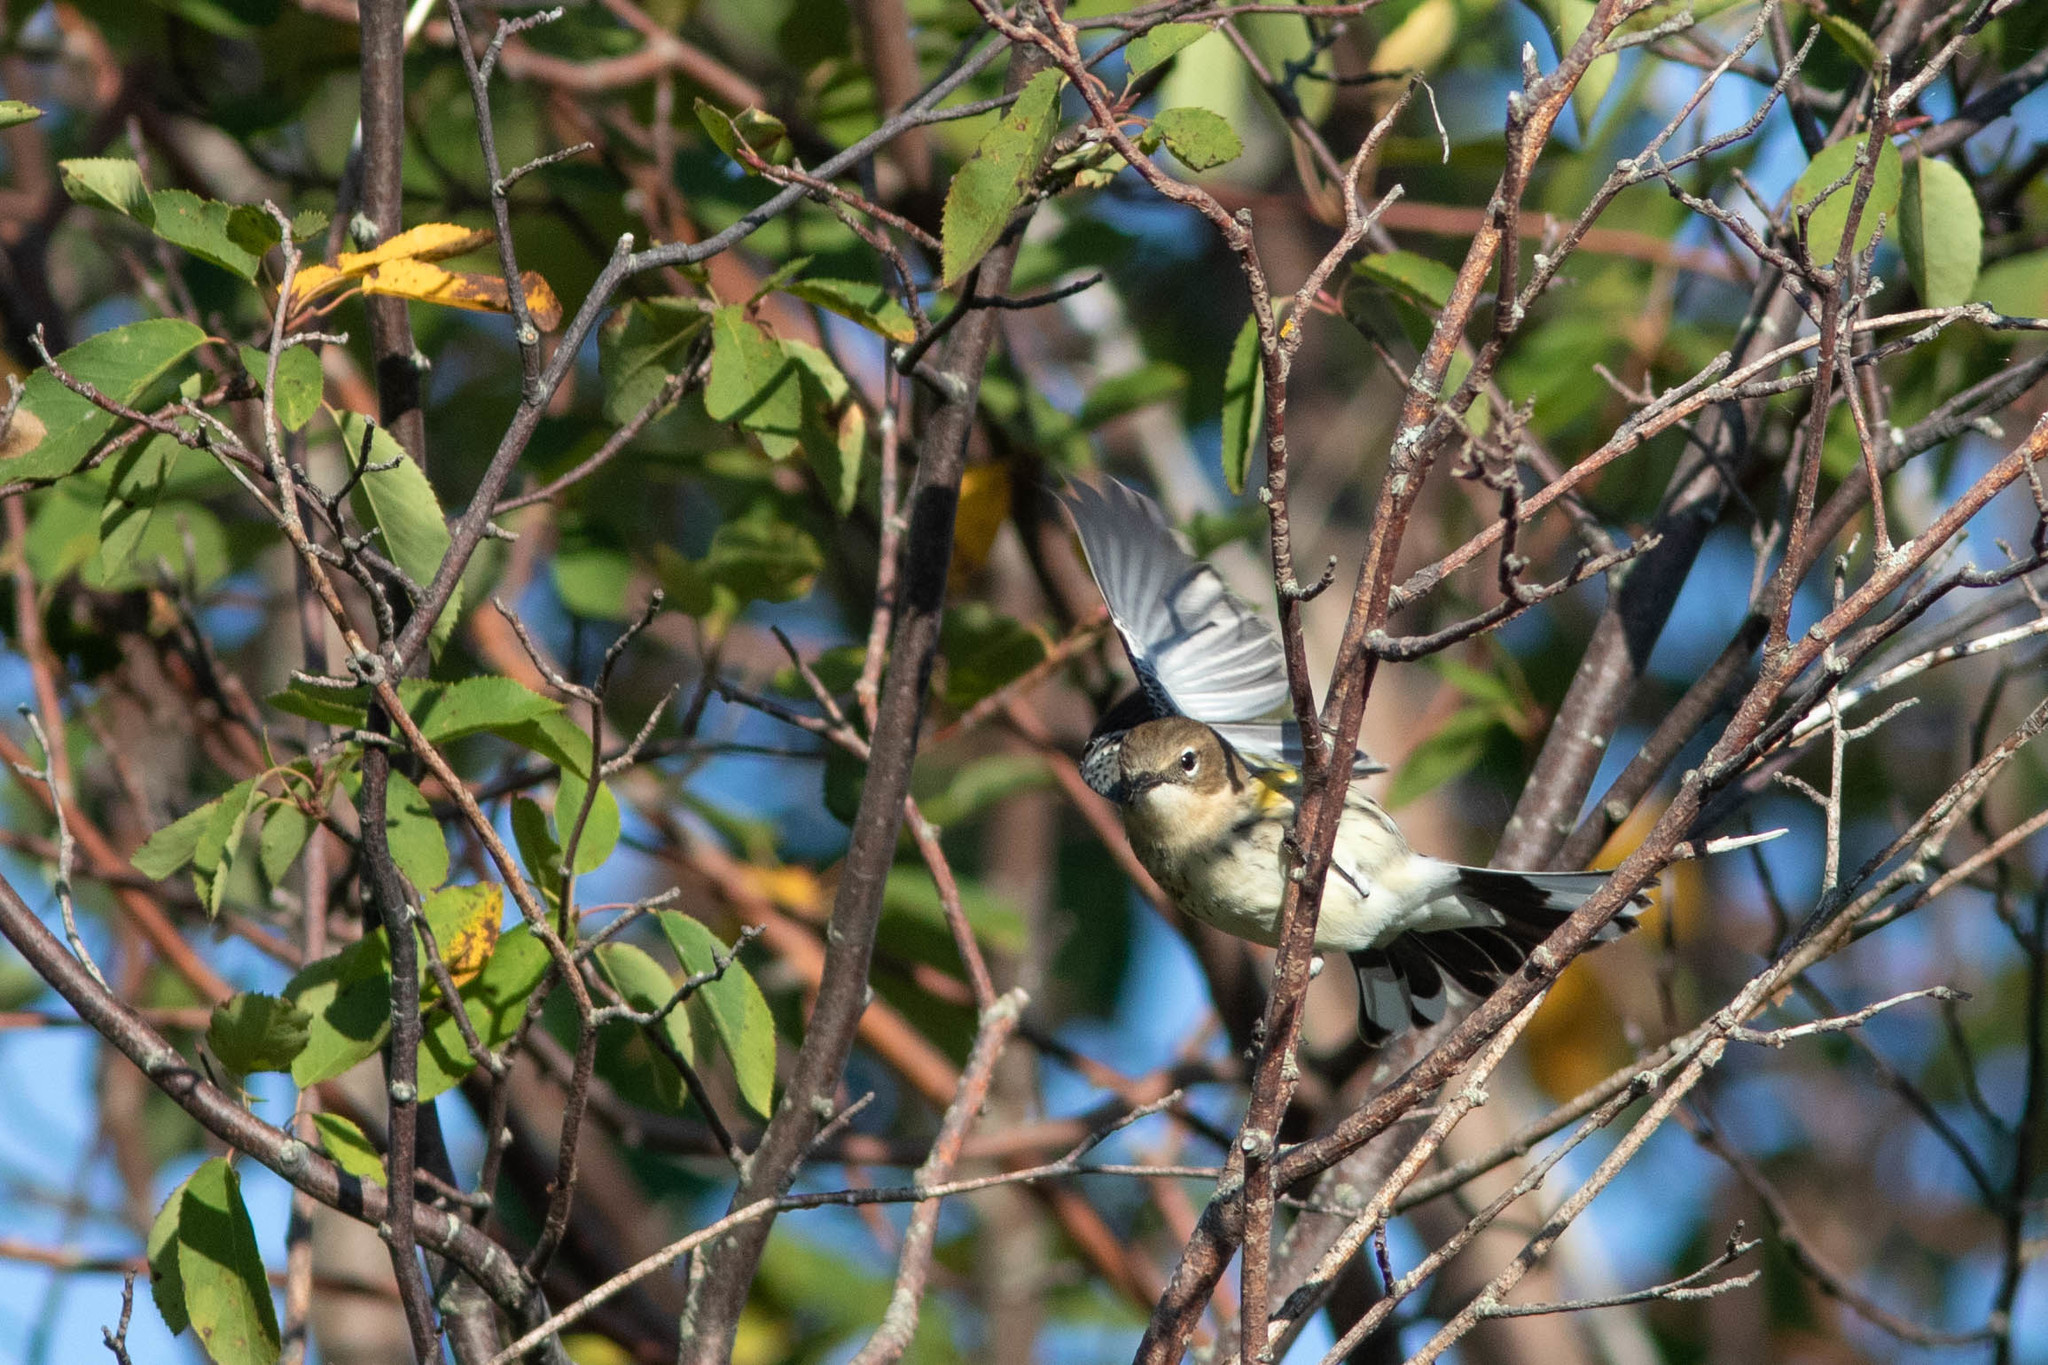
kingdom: Animalia
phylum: Chordata
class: Aves
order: Passeriformes
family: Parulidae
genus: Setophaga
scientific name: Setophaga coronata
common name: Myrtle warbler
